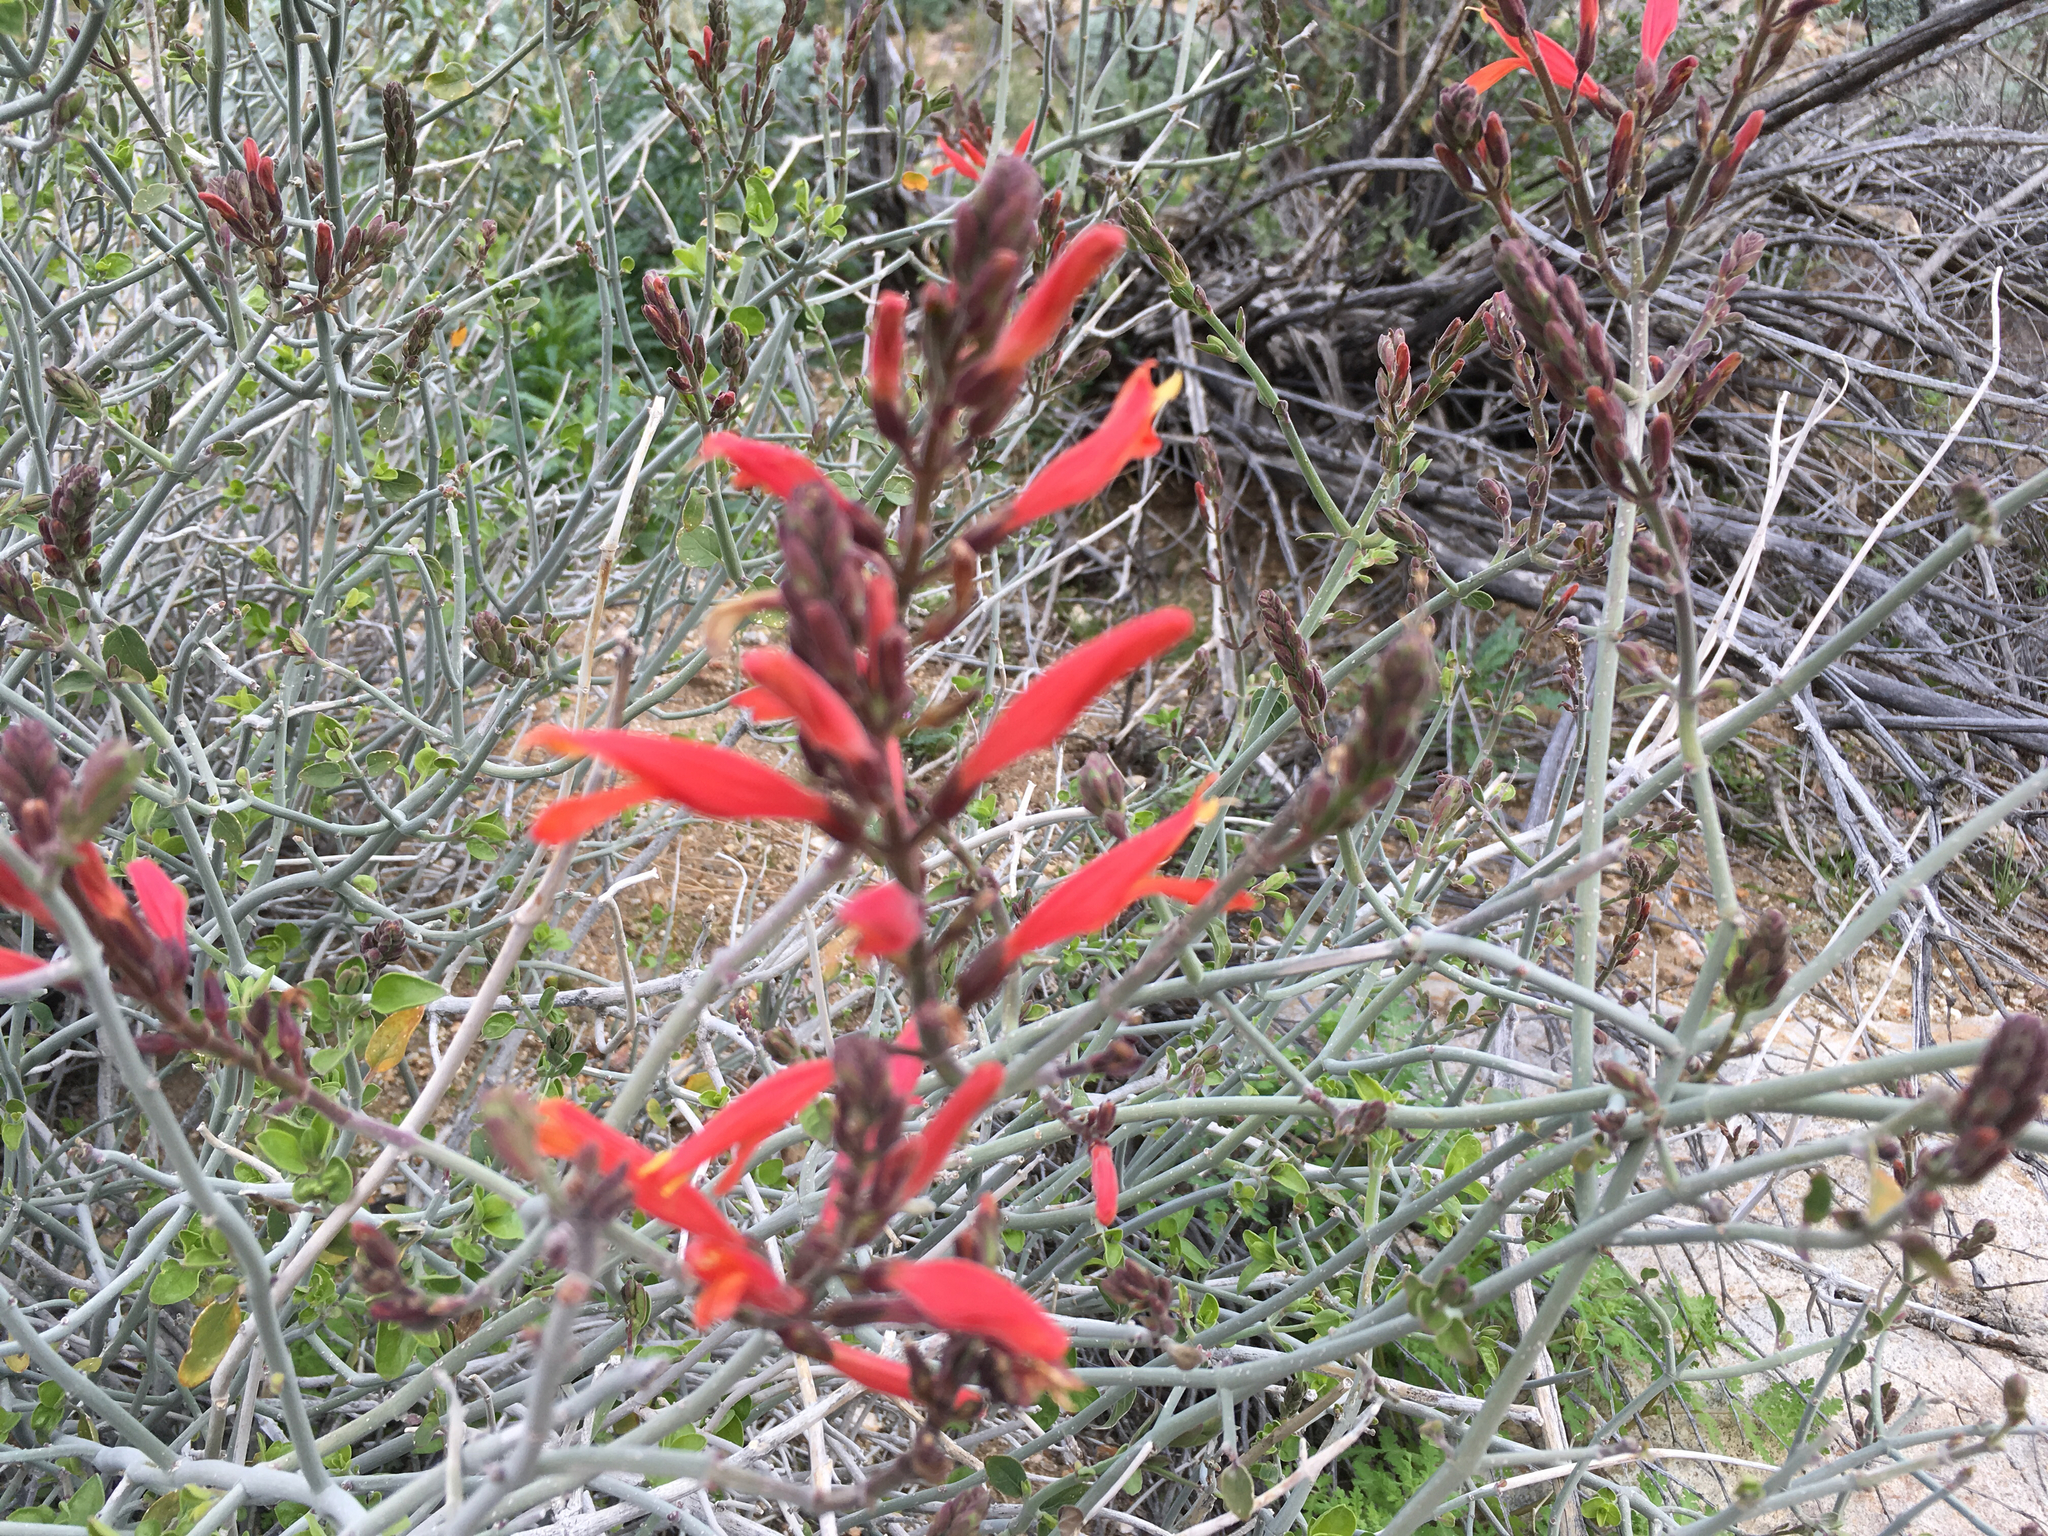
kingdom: Plantae
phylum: Tracheophyta
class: Magnoliopsida
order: Lamiales
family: Acanthaceae
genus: Justicia
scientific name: Justicia californica
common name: Chuparosa-honeysuckle
